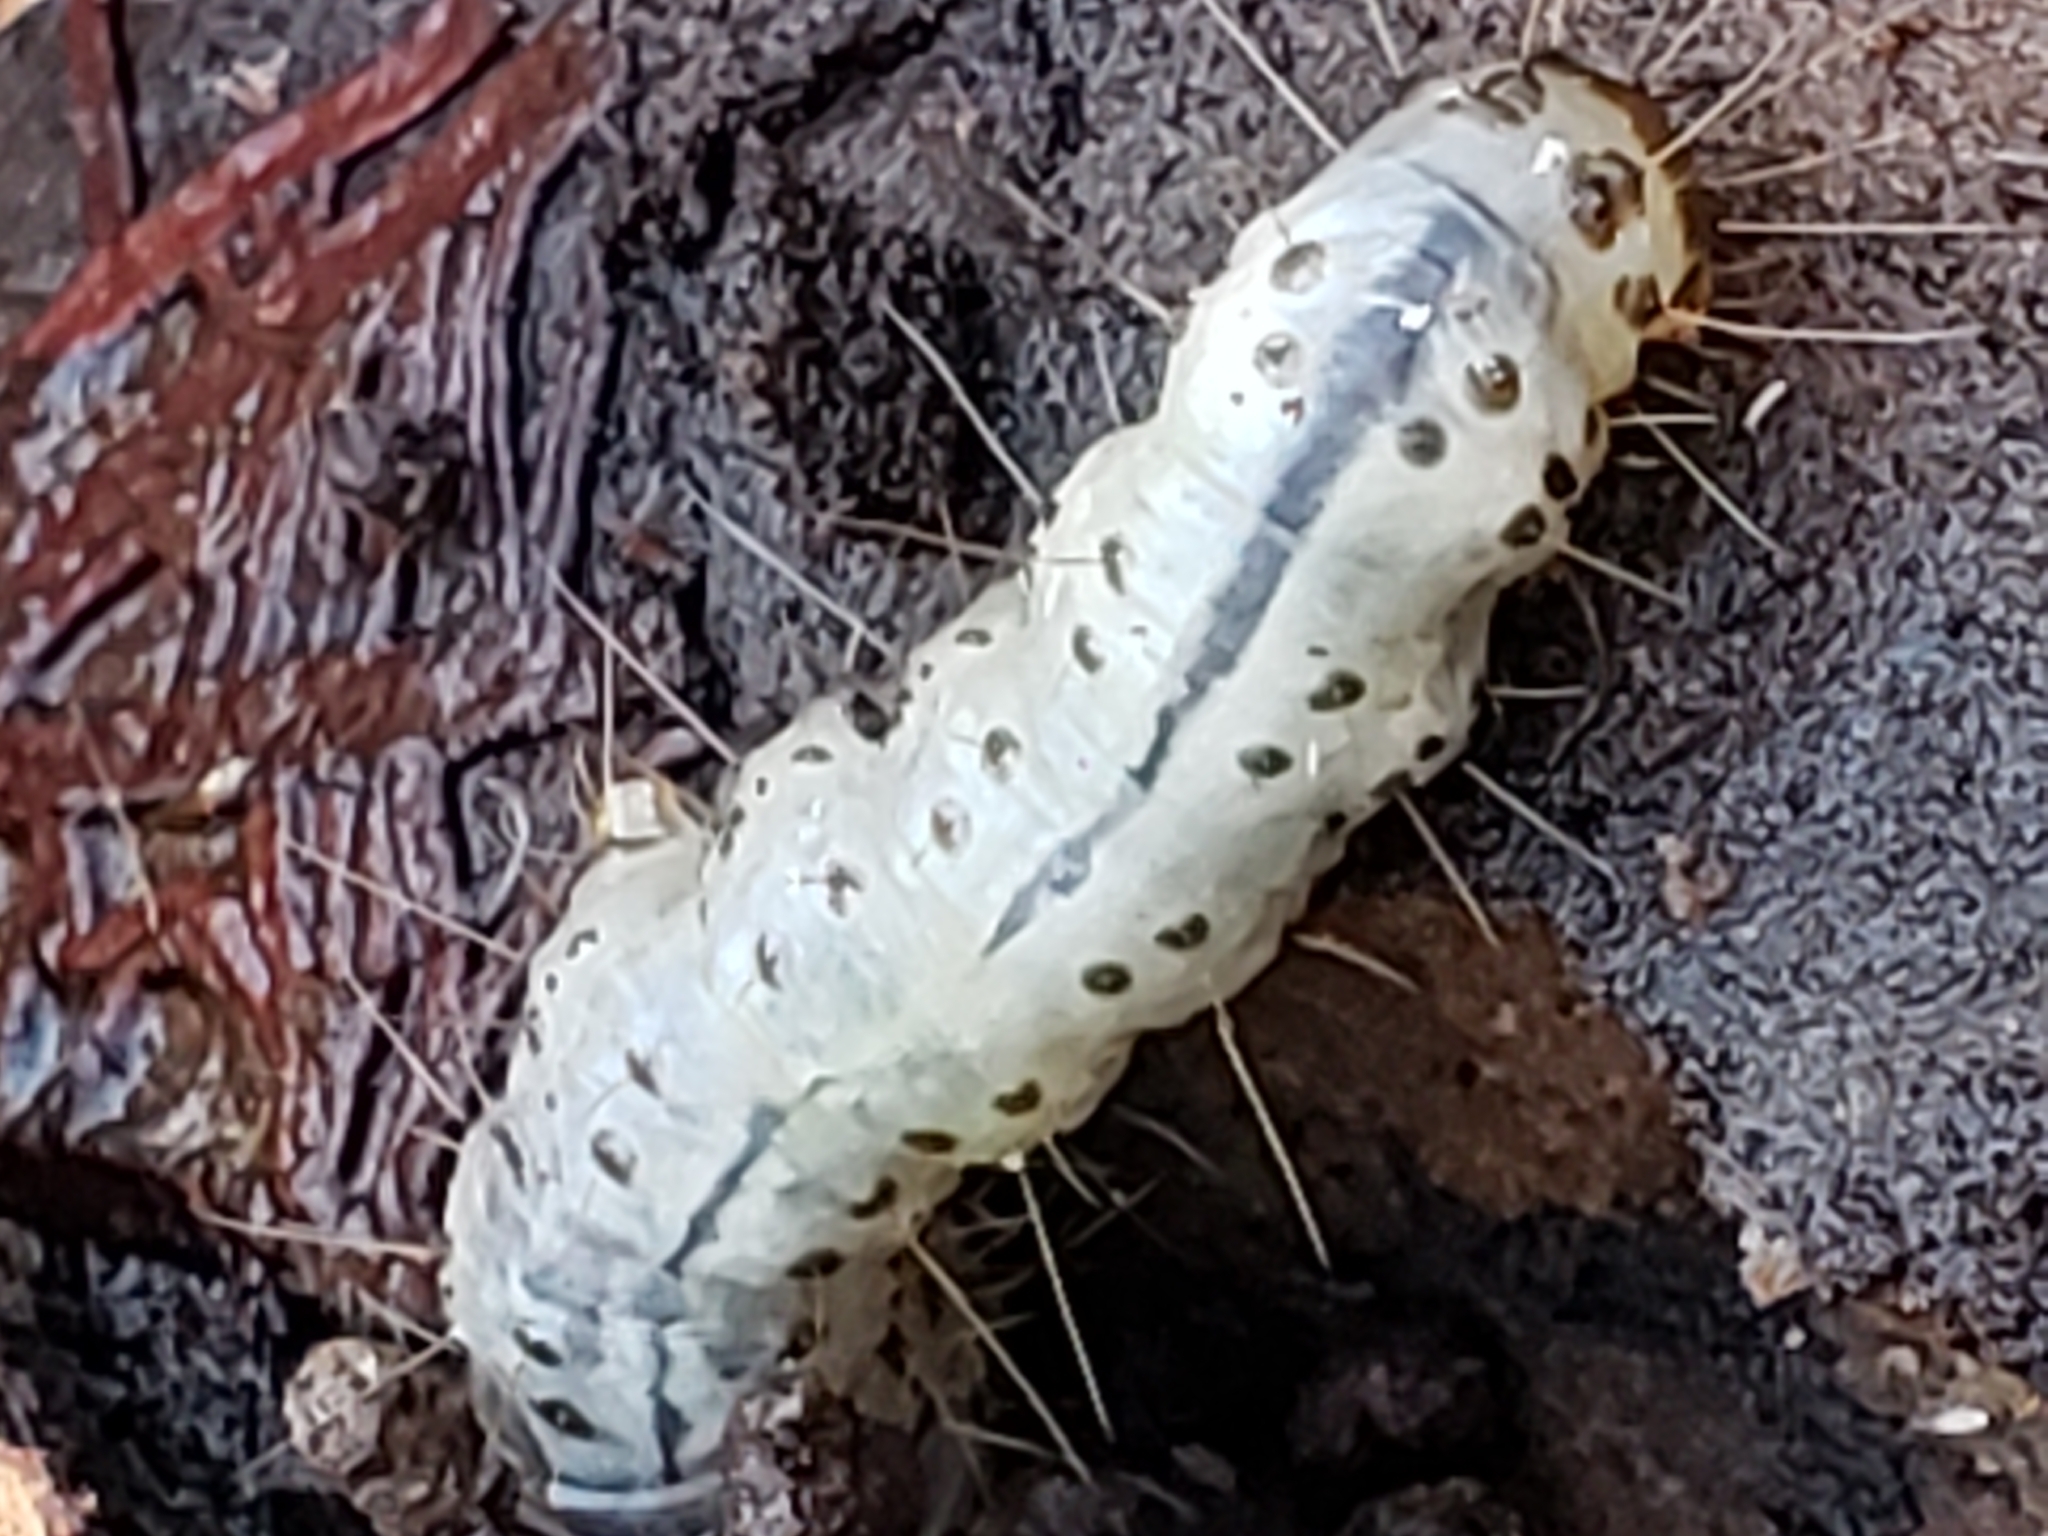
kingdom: Animalia
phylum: Arthropoda
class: Insecta
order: Lepidoptera
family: Erebidae
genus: Scolecocampa
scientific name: Scolecocampa liburna
